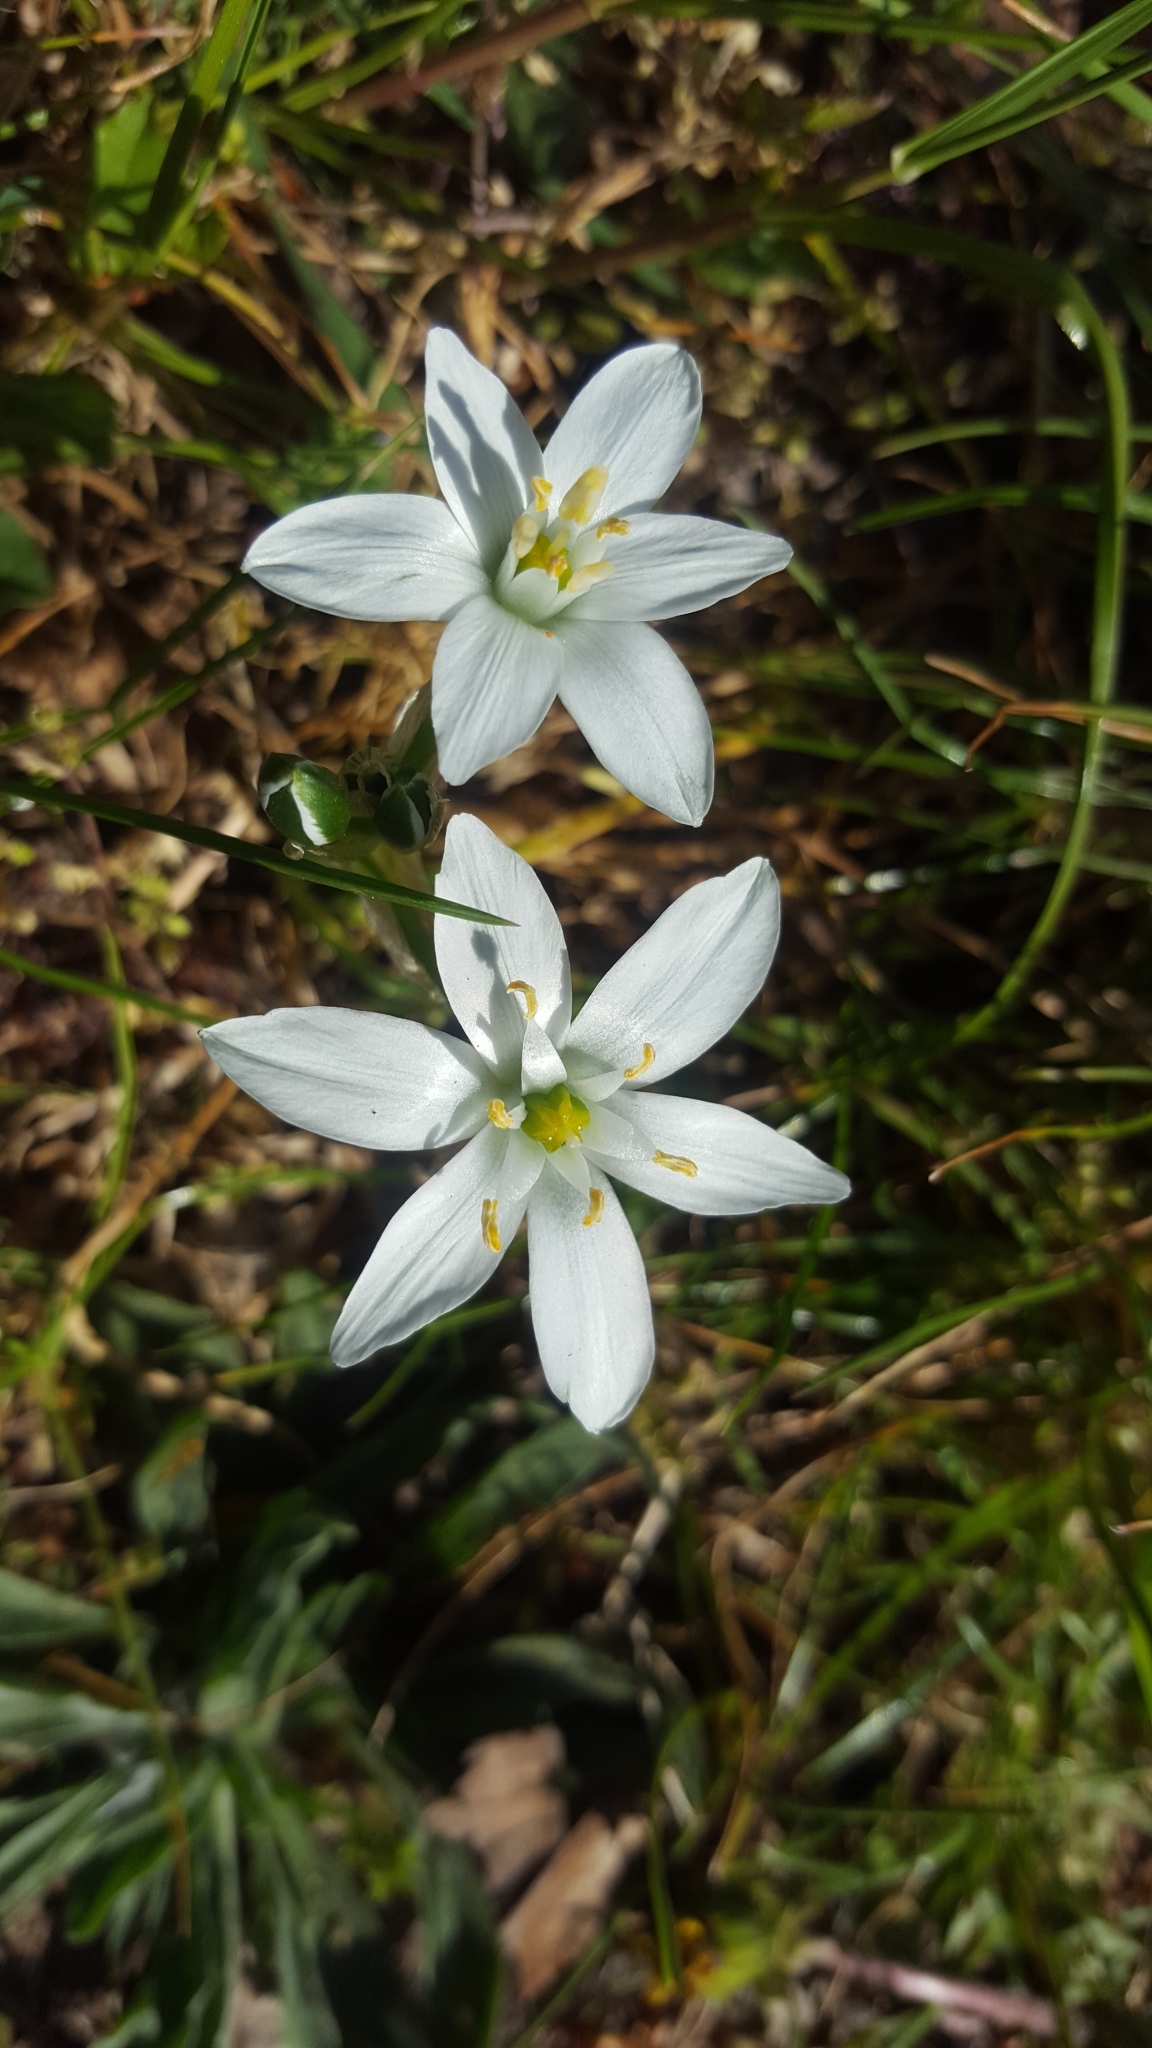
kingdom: Plantae
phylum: Tracheophyta
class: Liliopsida
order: Asparagales
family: Asparagaceae
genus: Ornithogalum
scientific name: Ornithogalum umbellatum
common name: Garden star-of-bethlehem
